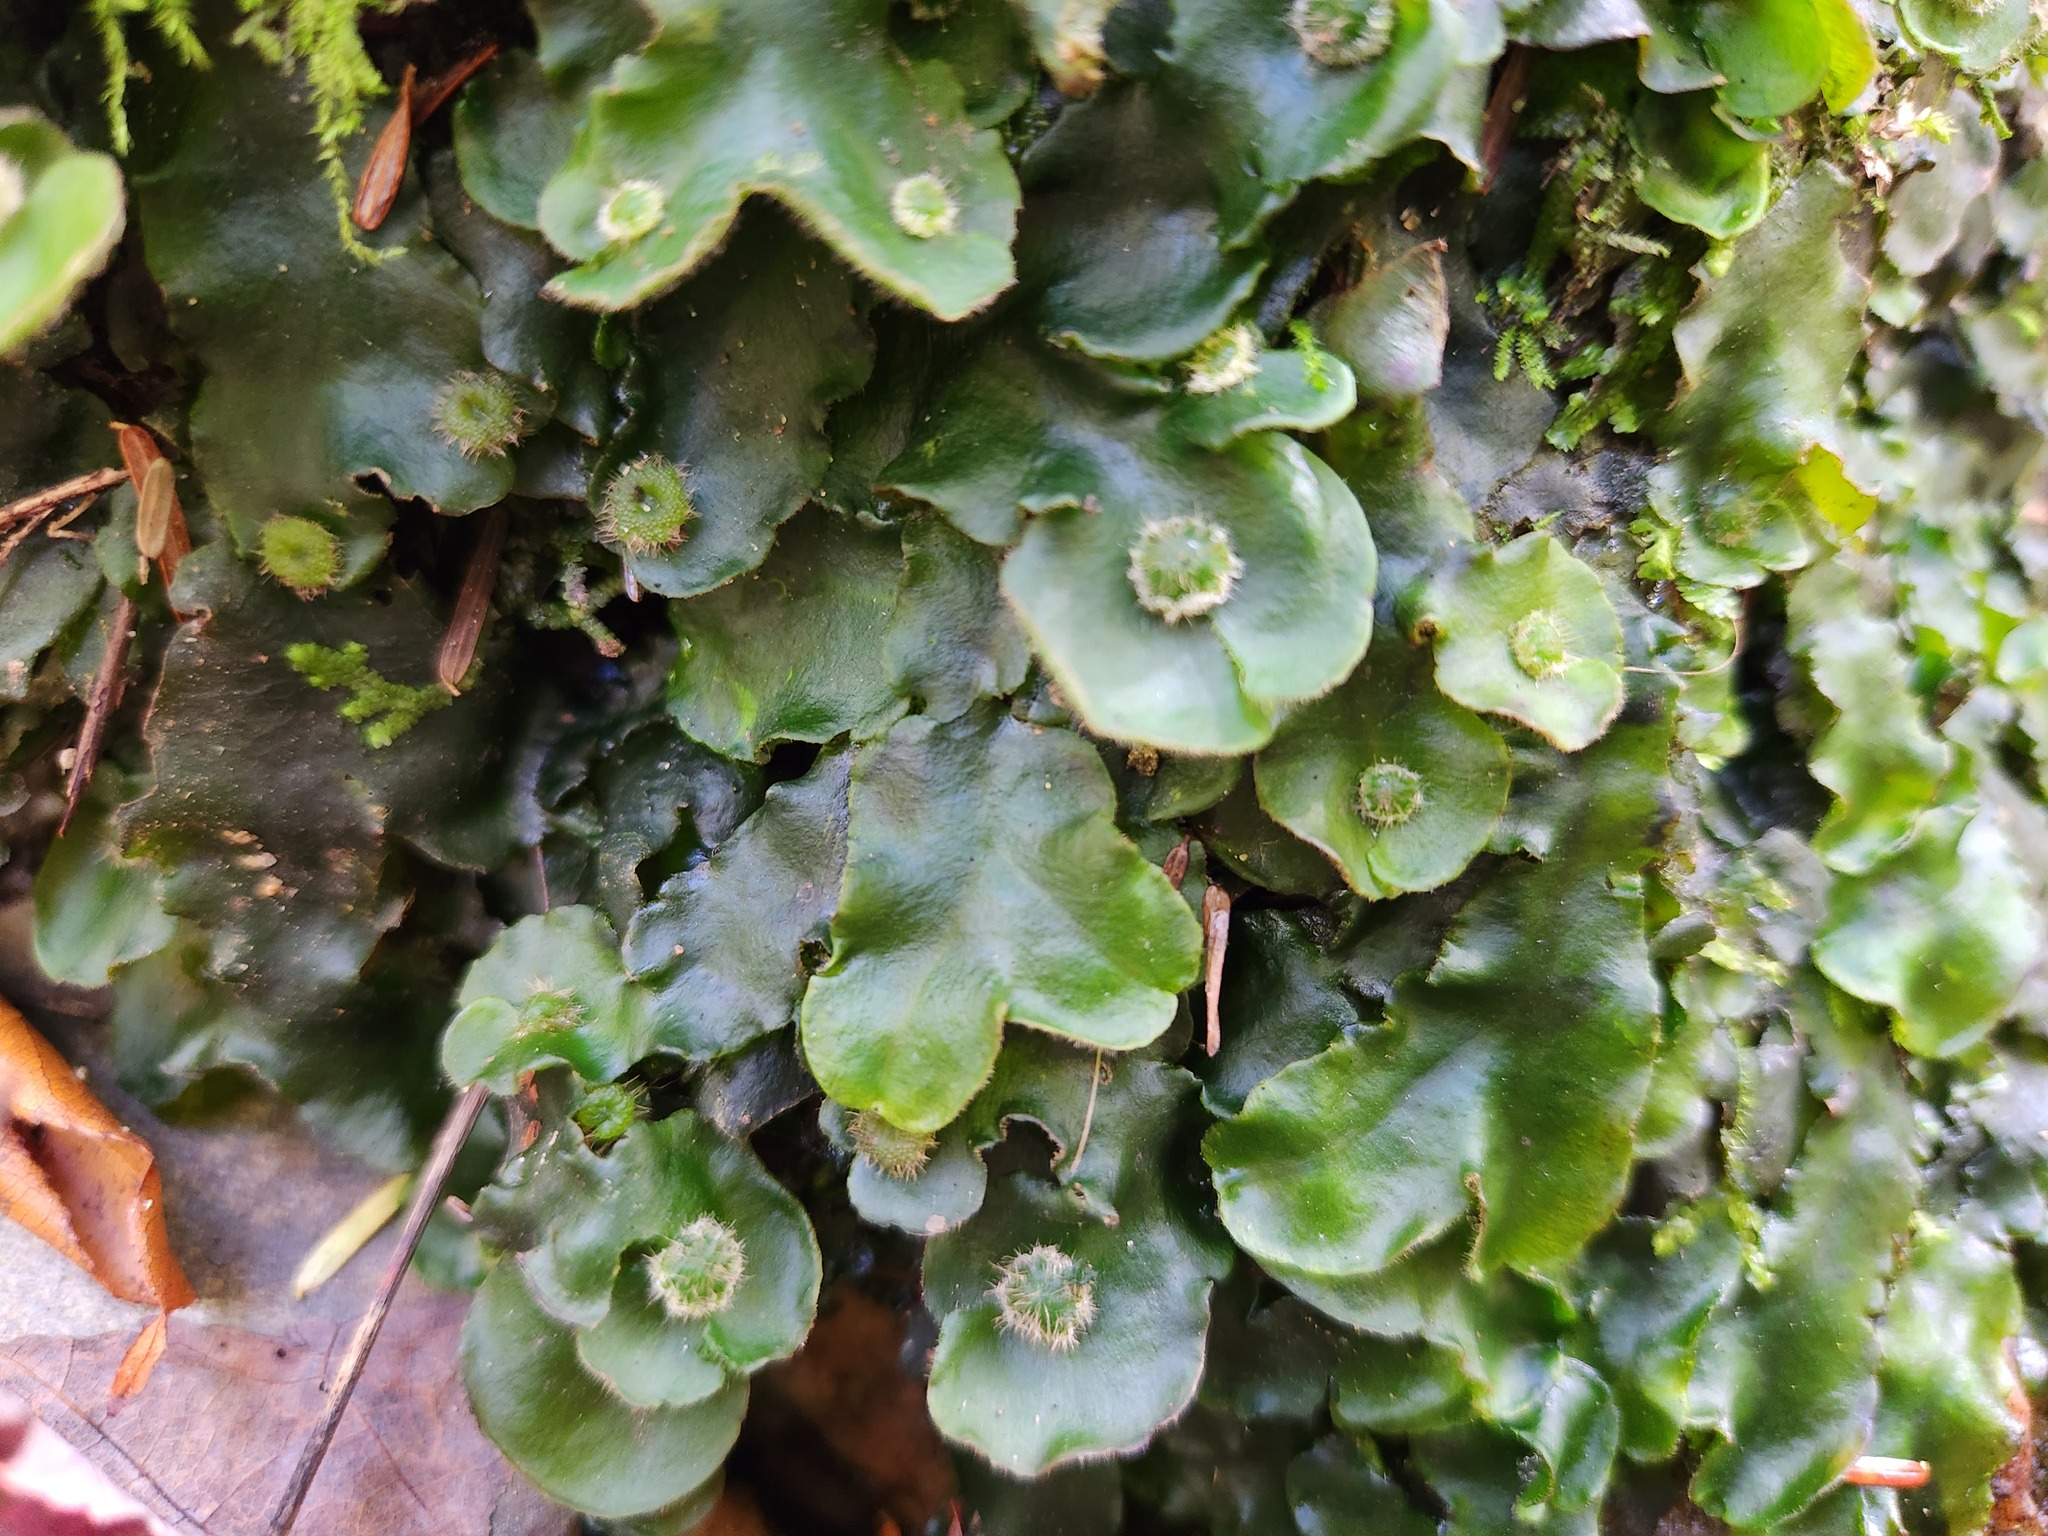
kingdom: Plantae
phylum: Marchantiophyta
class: Marchantiopsida
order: Marchantiales
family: Dumortieraceae
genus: Dumortiera
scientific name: Dumortiera hirsuta
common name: Dumortier's liverwort
